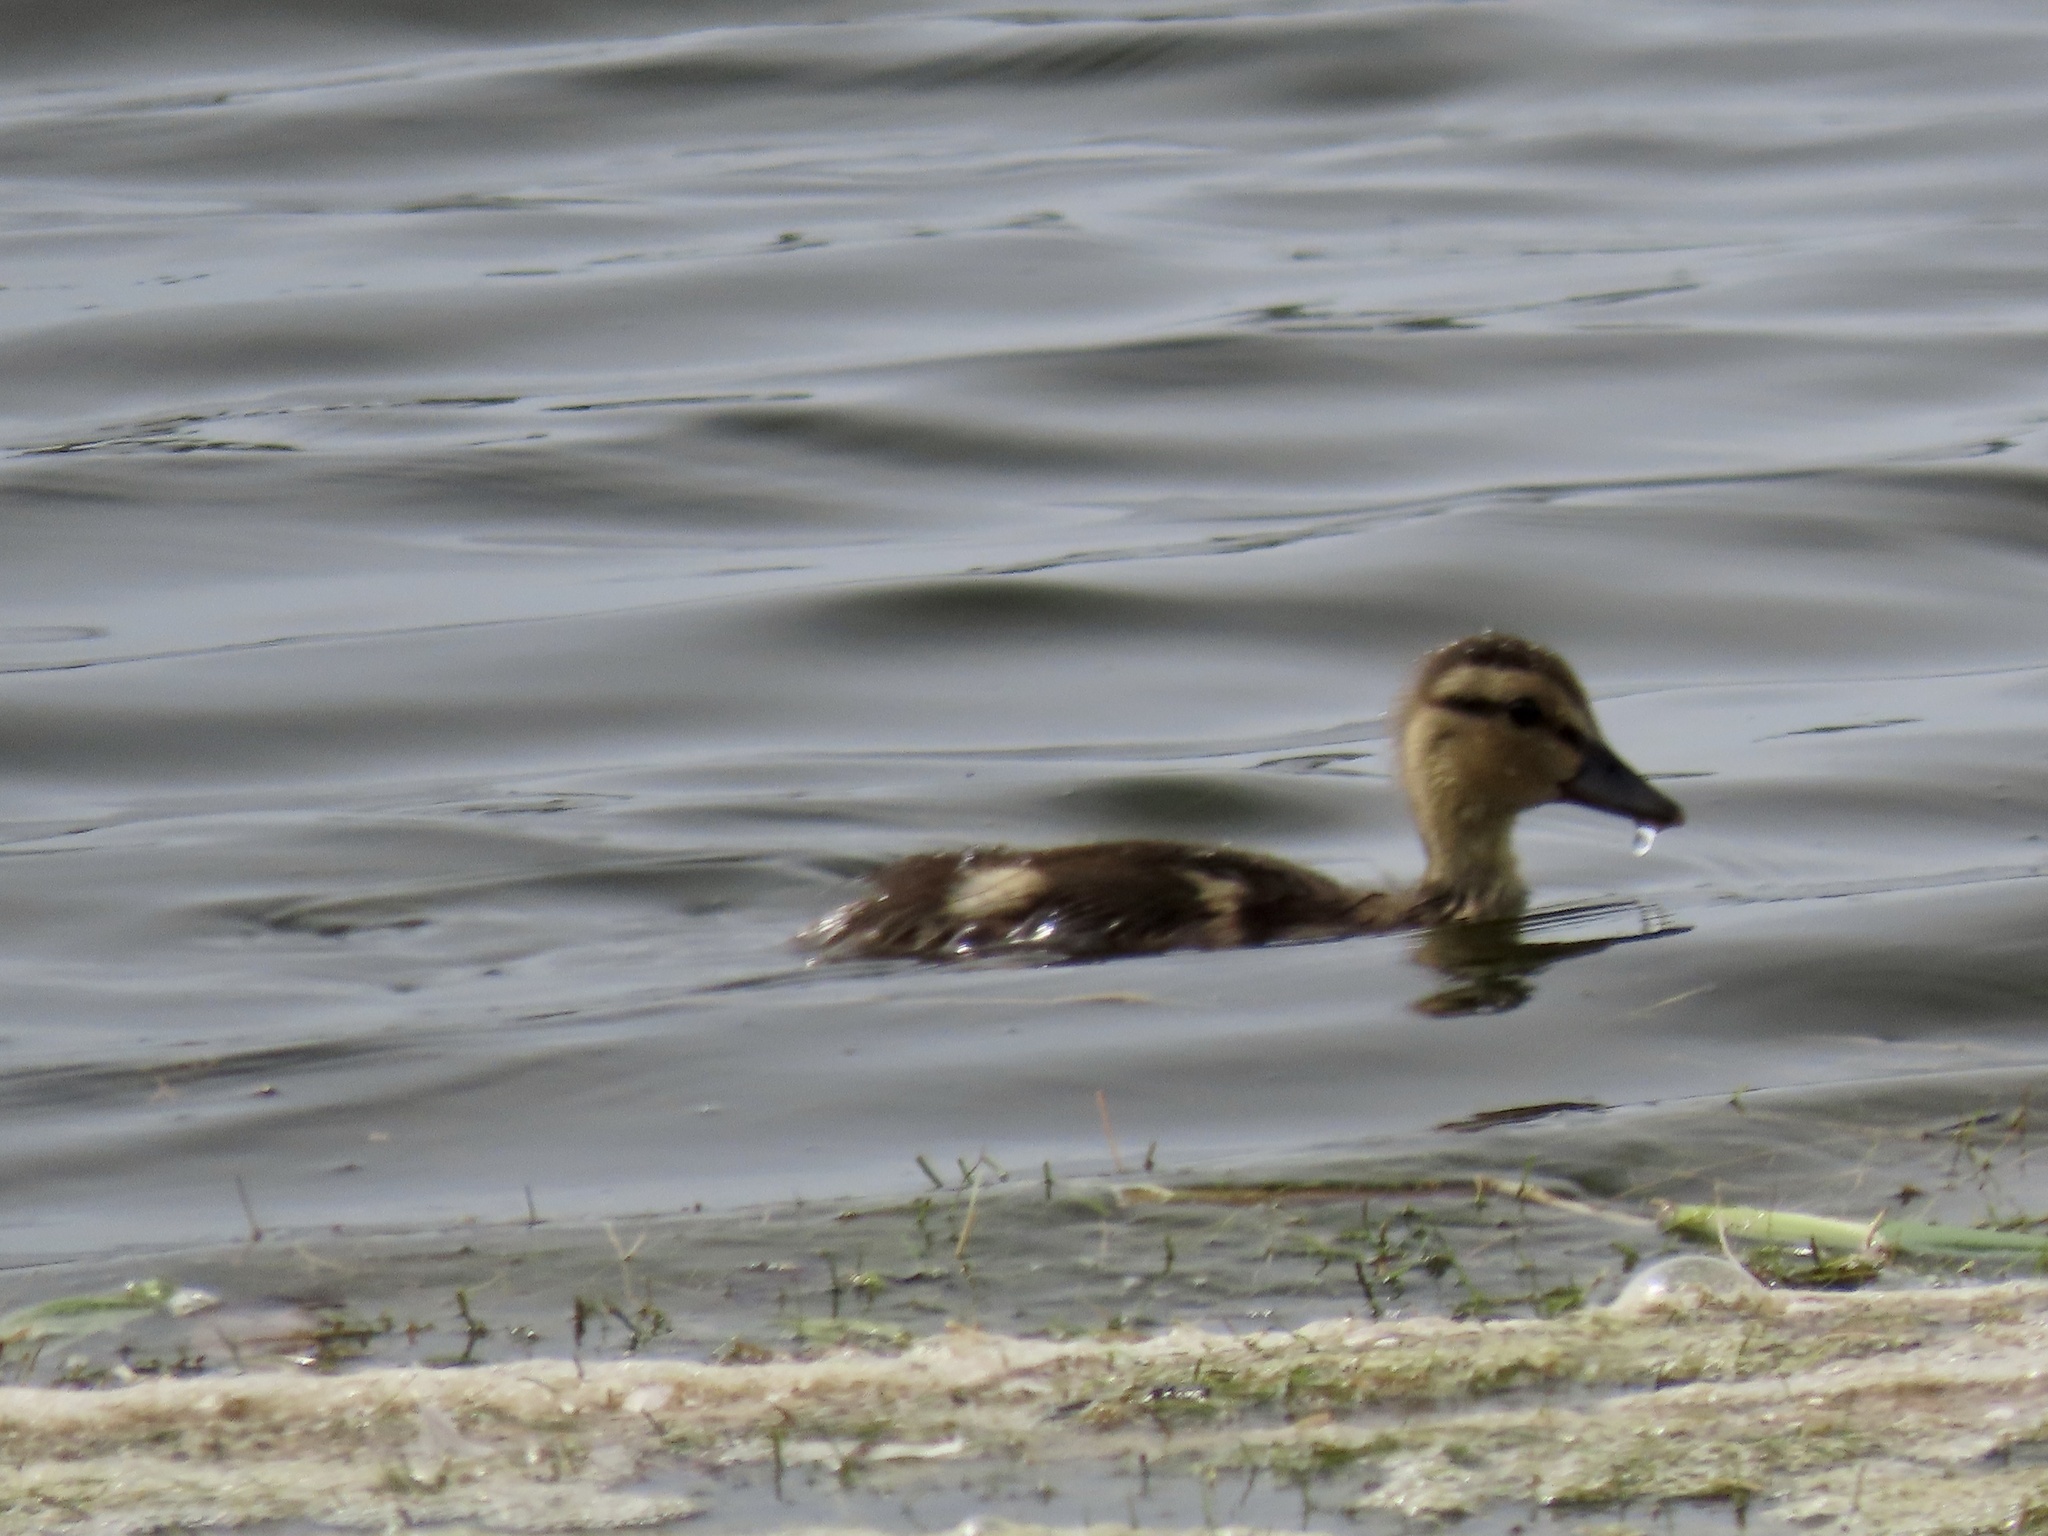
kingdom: Animalia
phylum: Chordata
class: Aves
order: Anseriformes
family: Anatidae
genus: Anas
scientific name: Anas platyrhynchos
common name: Mallard
